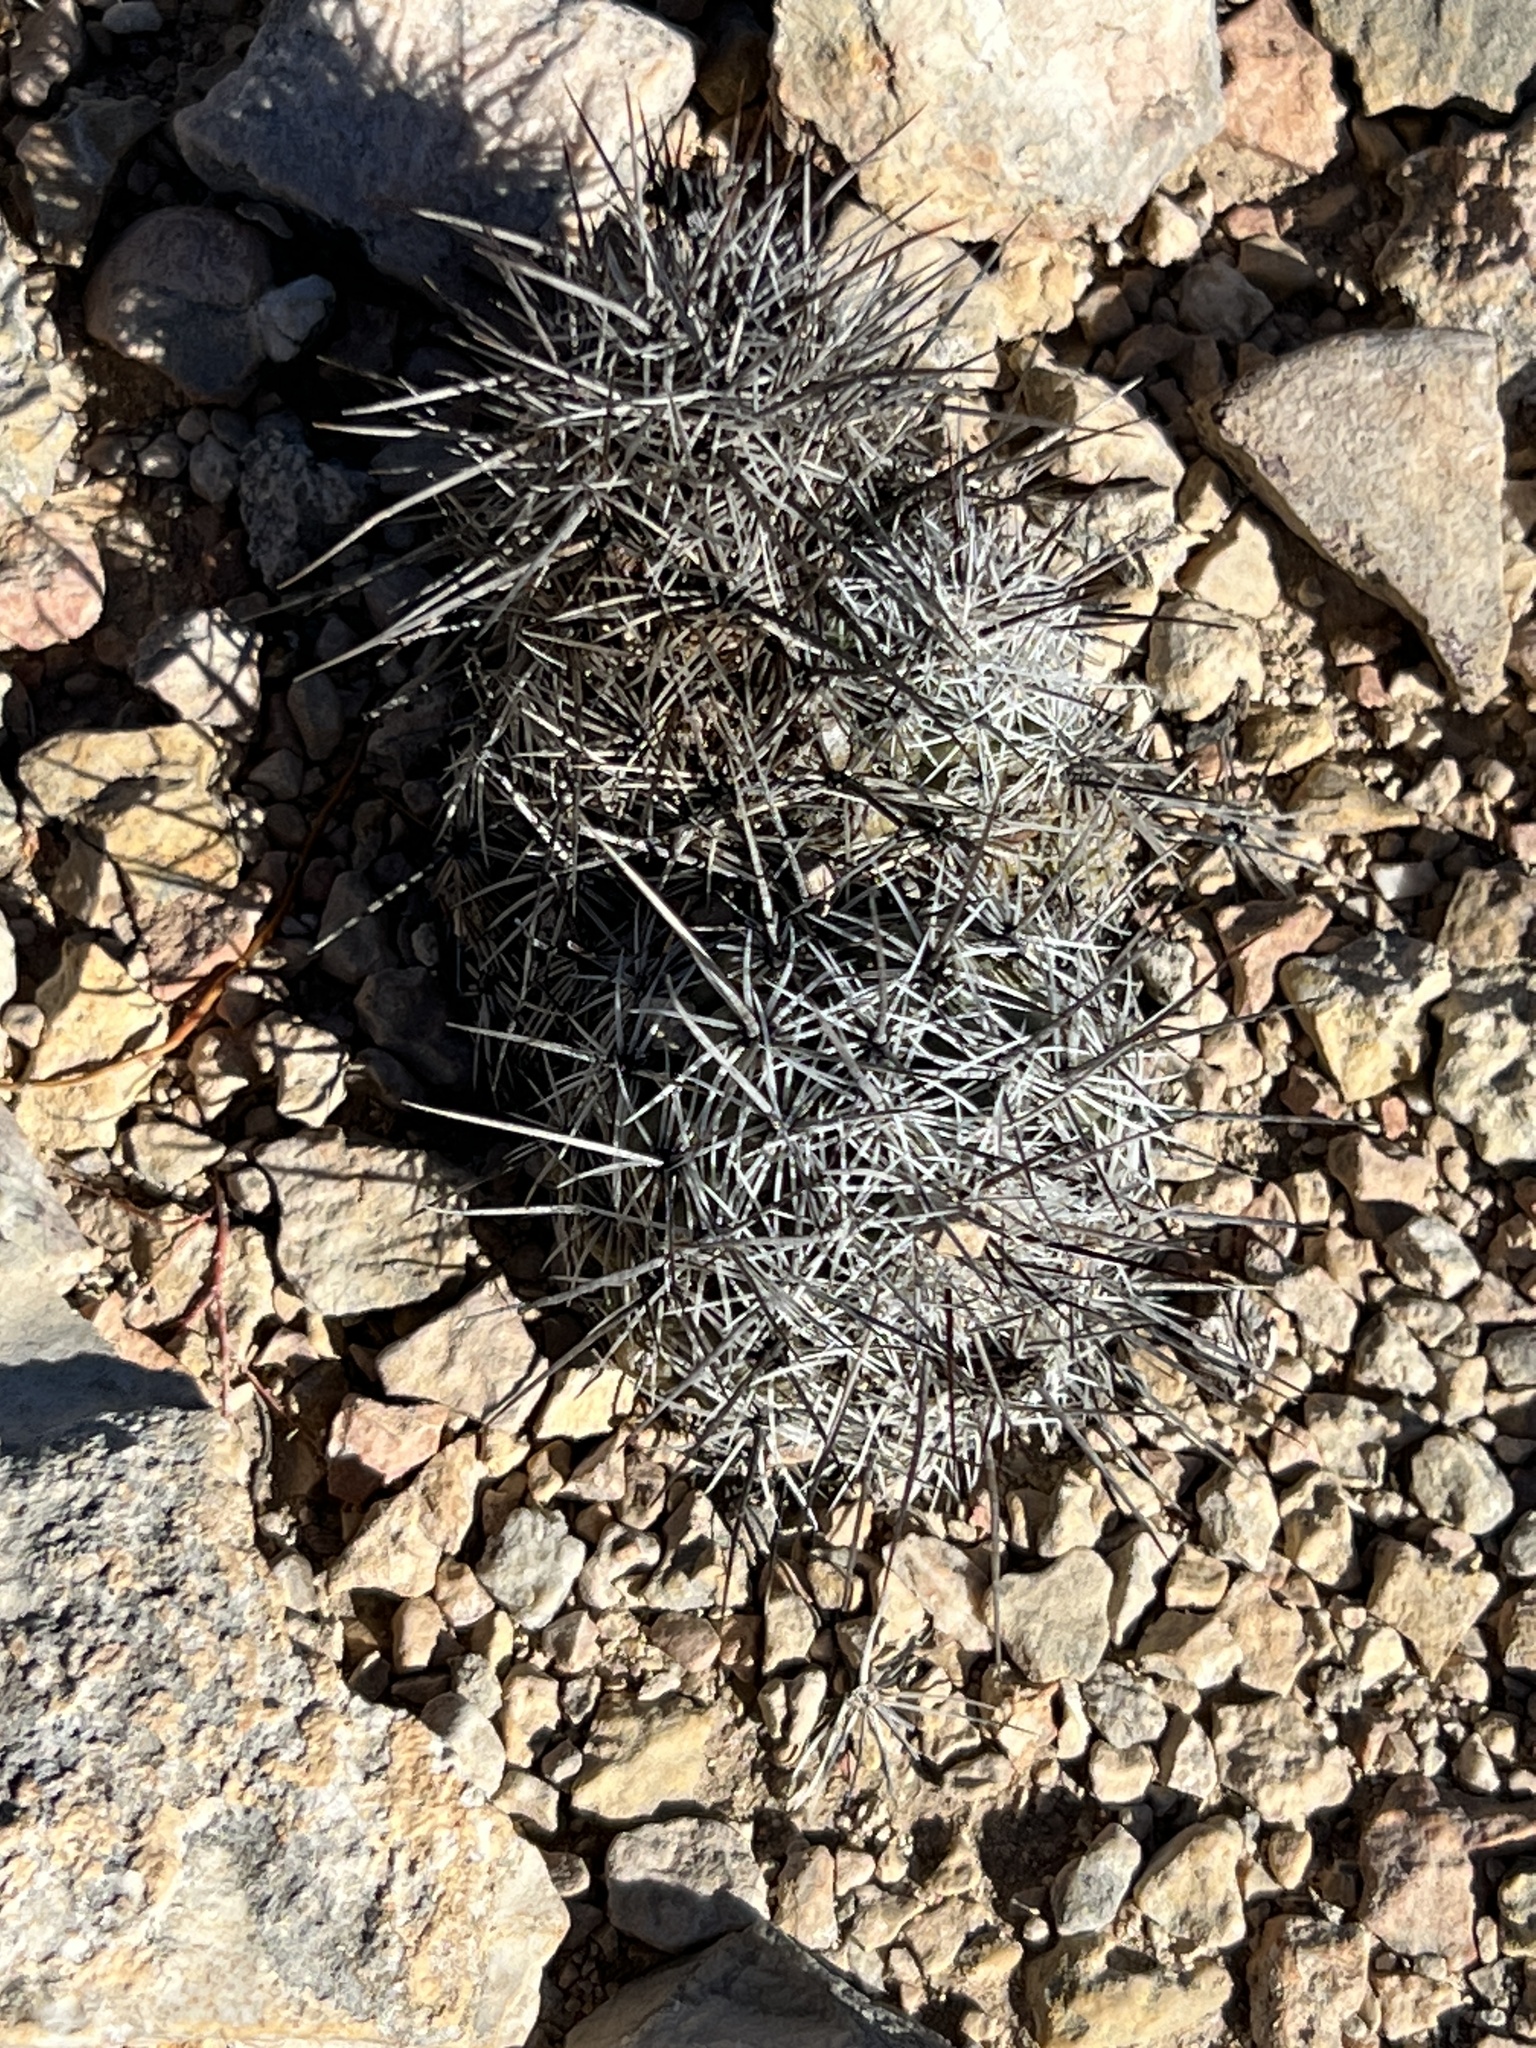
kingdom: Plantae
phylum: Tracheophyta
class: Magnoliopsida
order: Caryophyllales
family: Cactaceae
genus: Cochemiea
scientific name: Cochemiea conoidea
